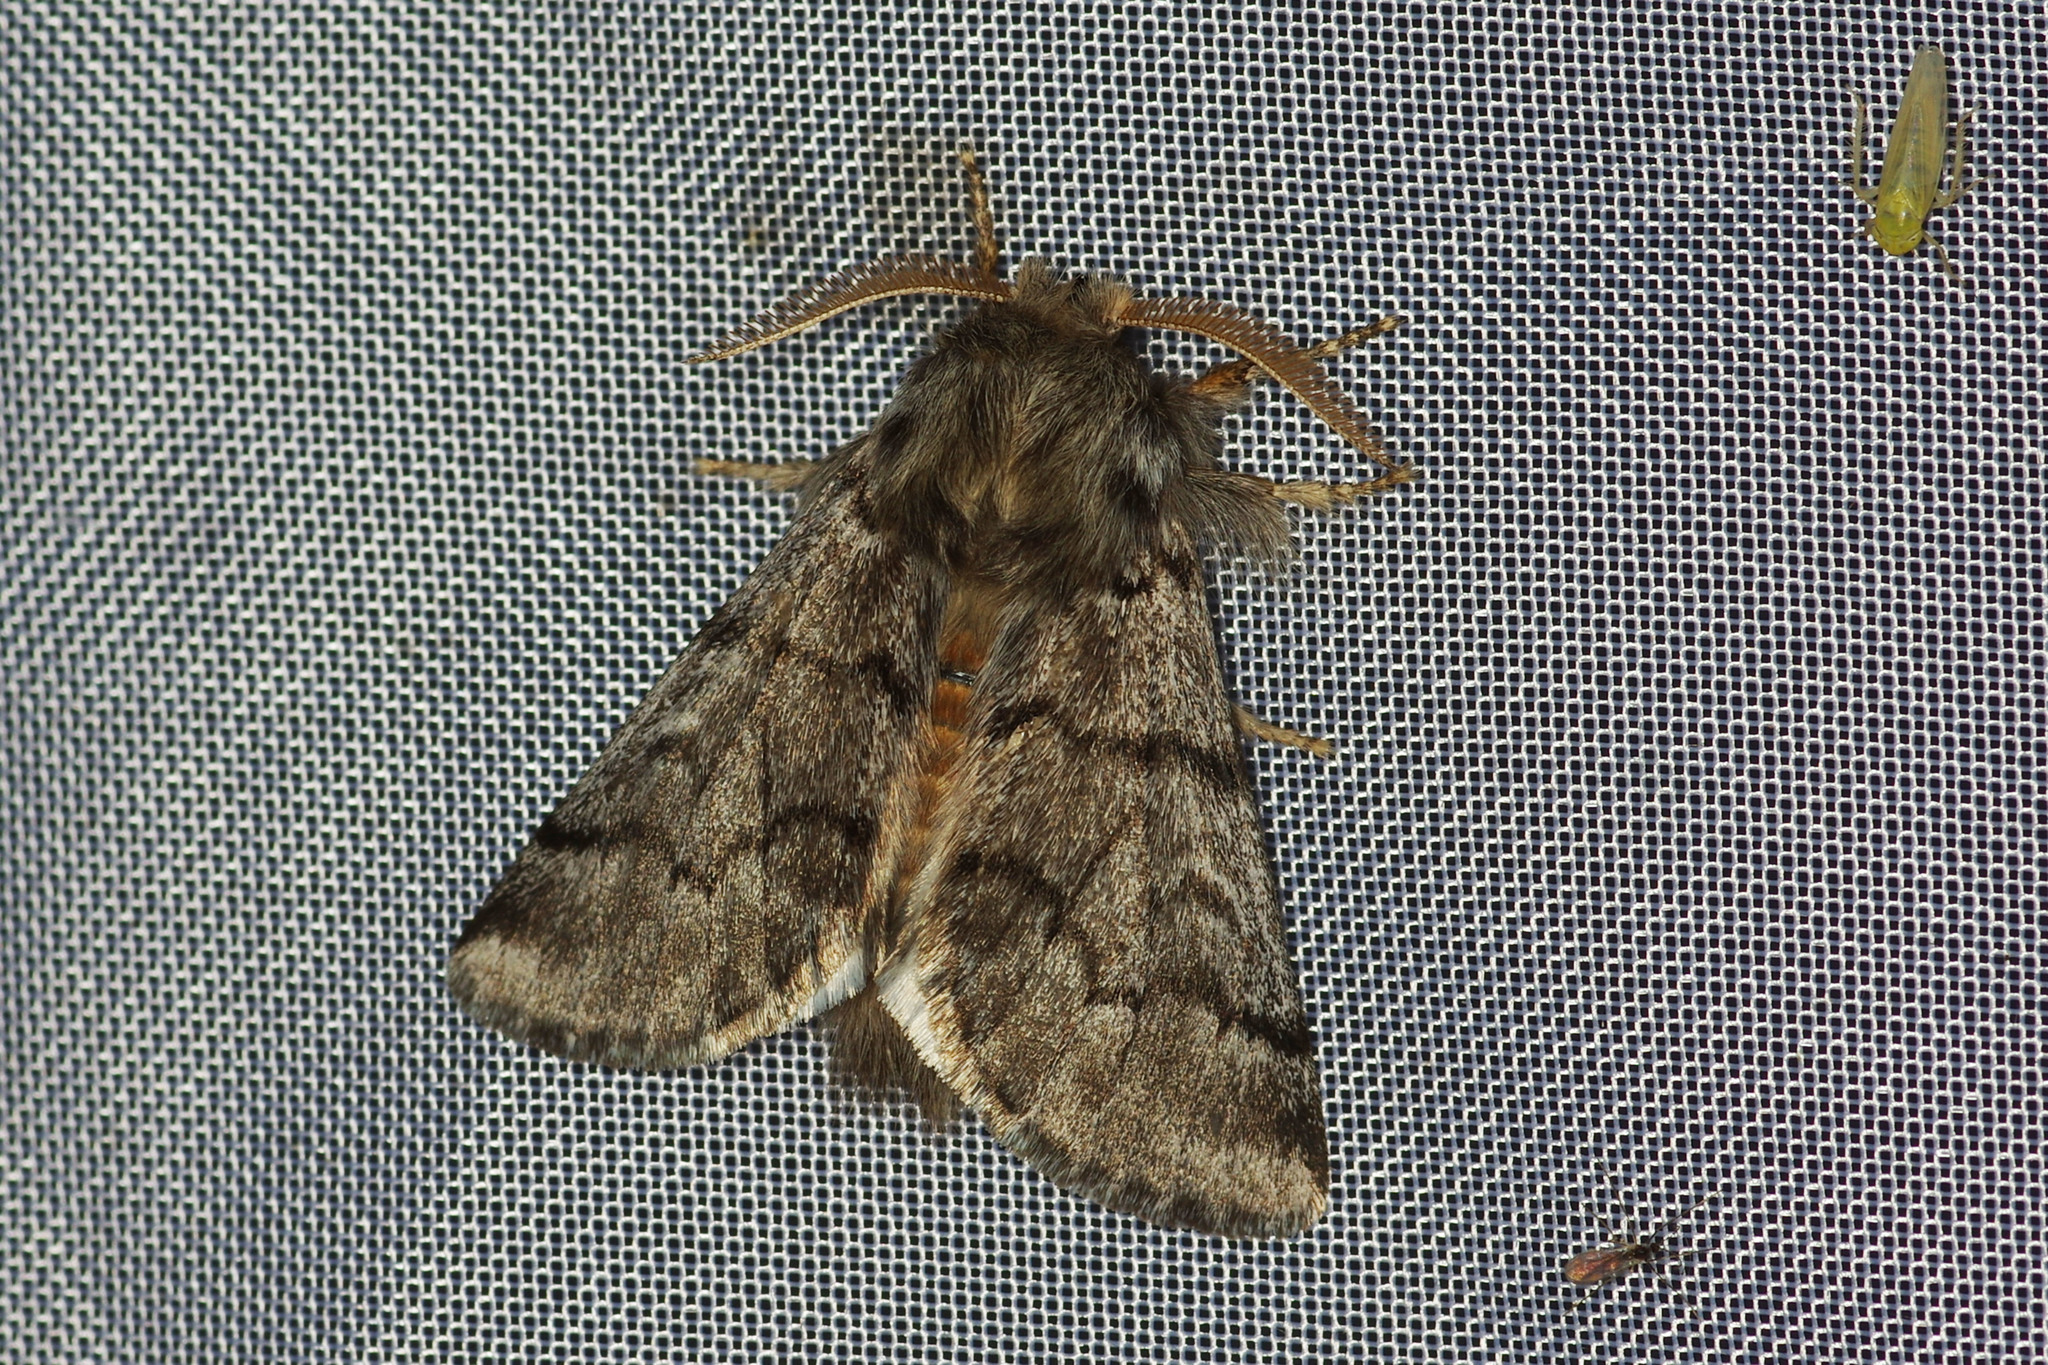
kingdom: Animalia
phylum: Arthropoda
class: Insecta
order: Lepidoptera
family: Notodontidae
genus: Thaumetopoea
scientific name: Thaumetopoea pityocampa
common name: Pine processionary
